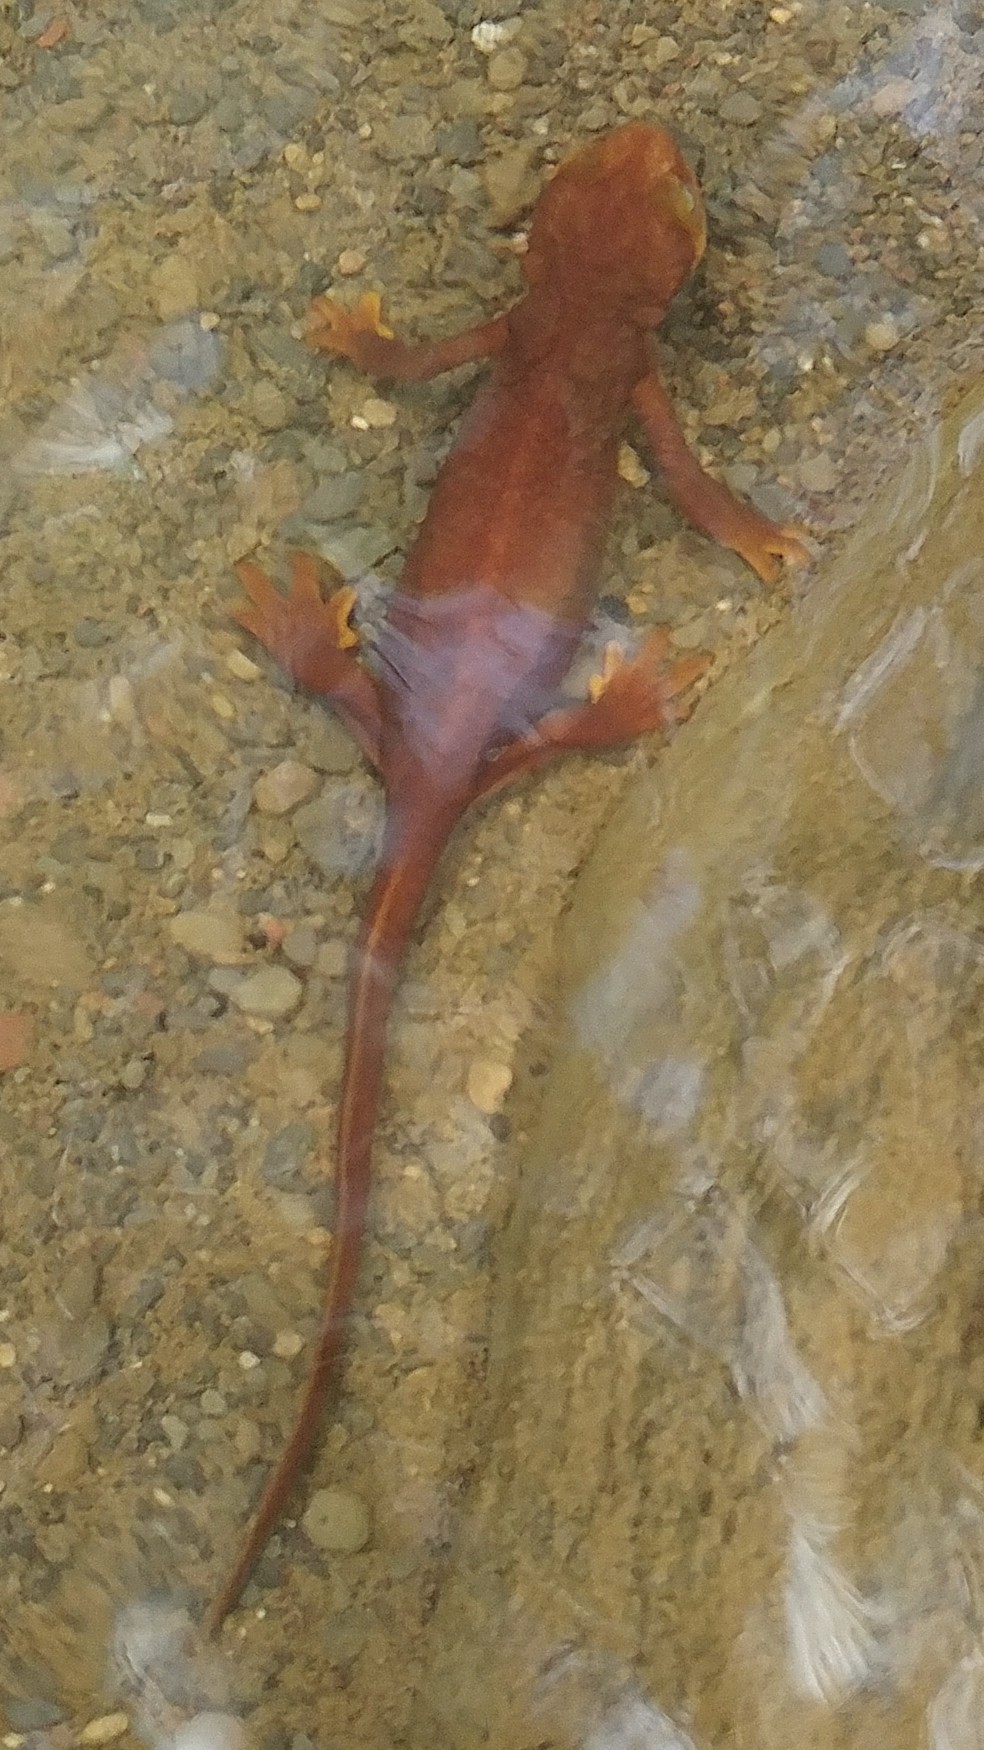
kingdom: Animalia
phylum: Chordata
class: Amphibia
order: Caudata
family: Salamandridae
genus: Taricha
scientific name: Taricha torosa
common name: California newt
